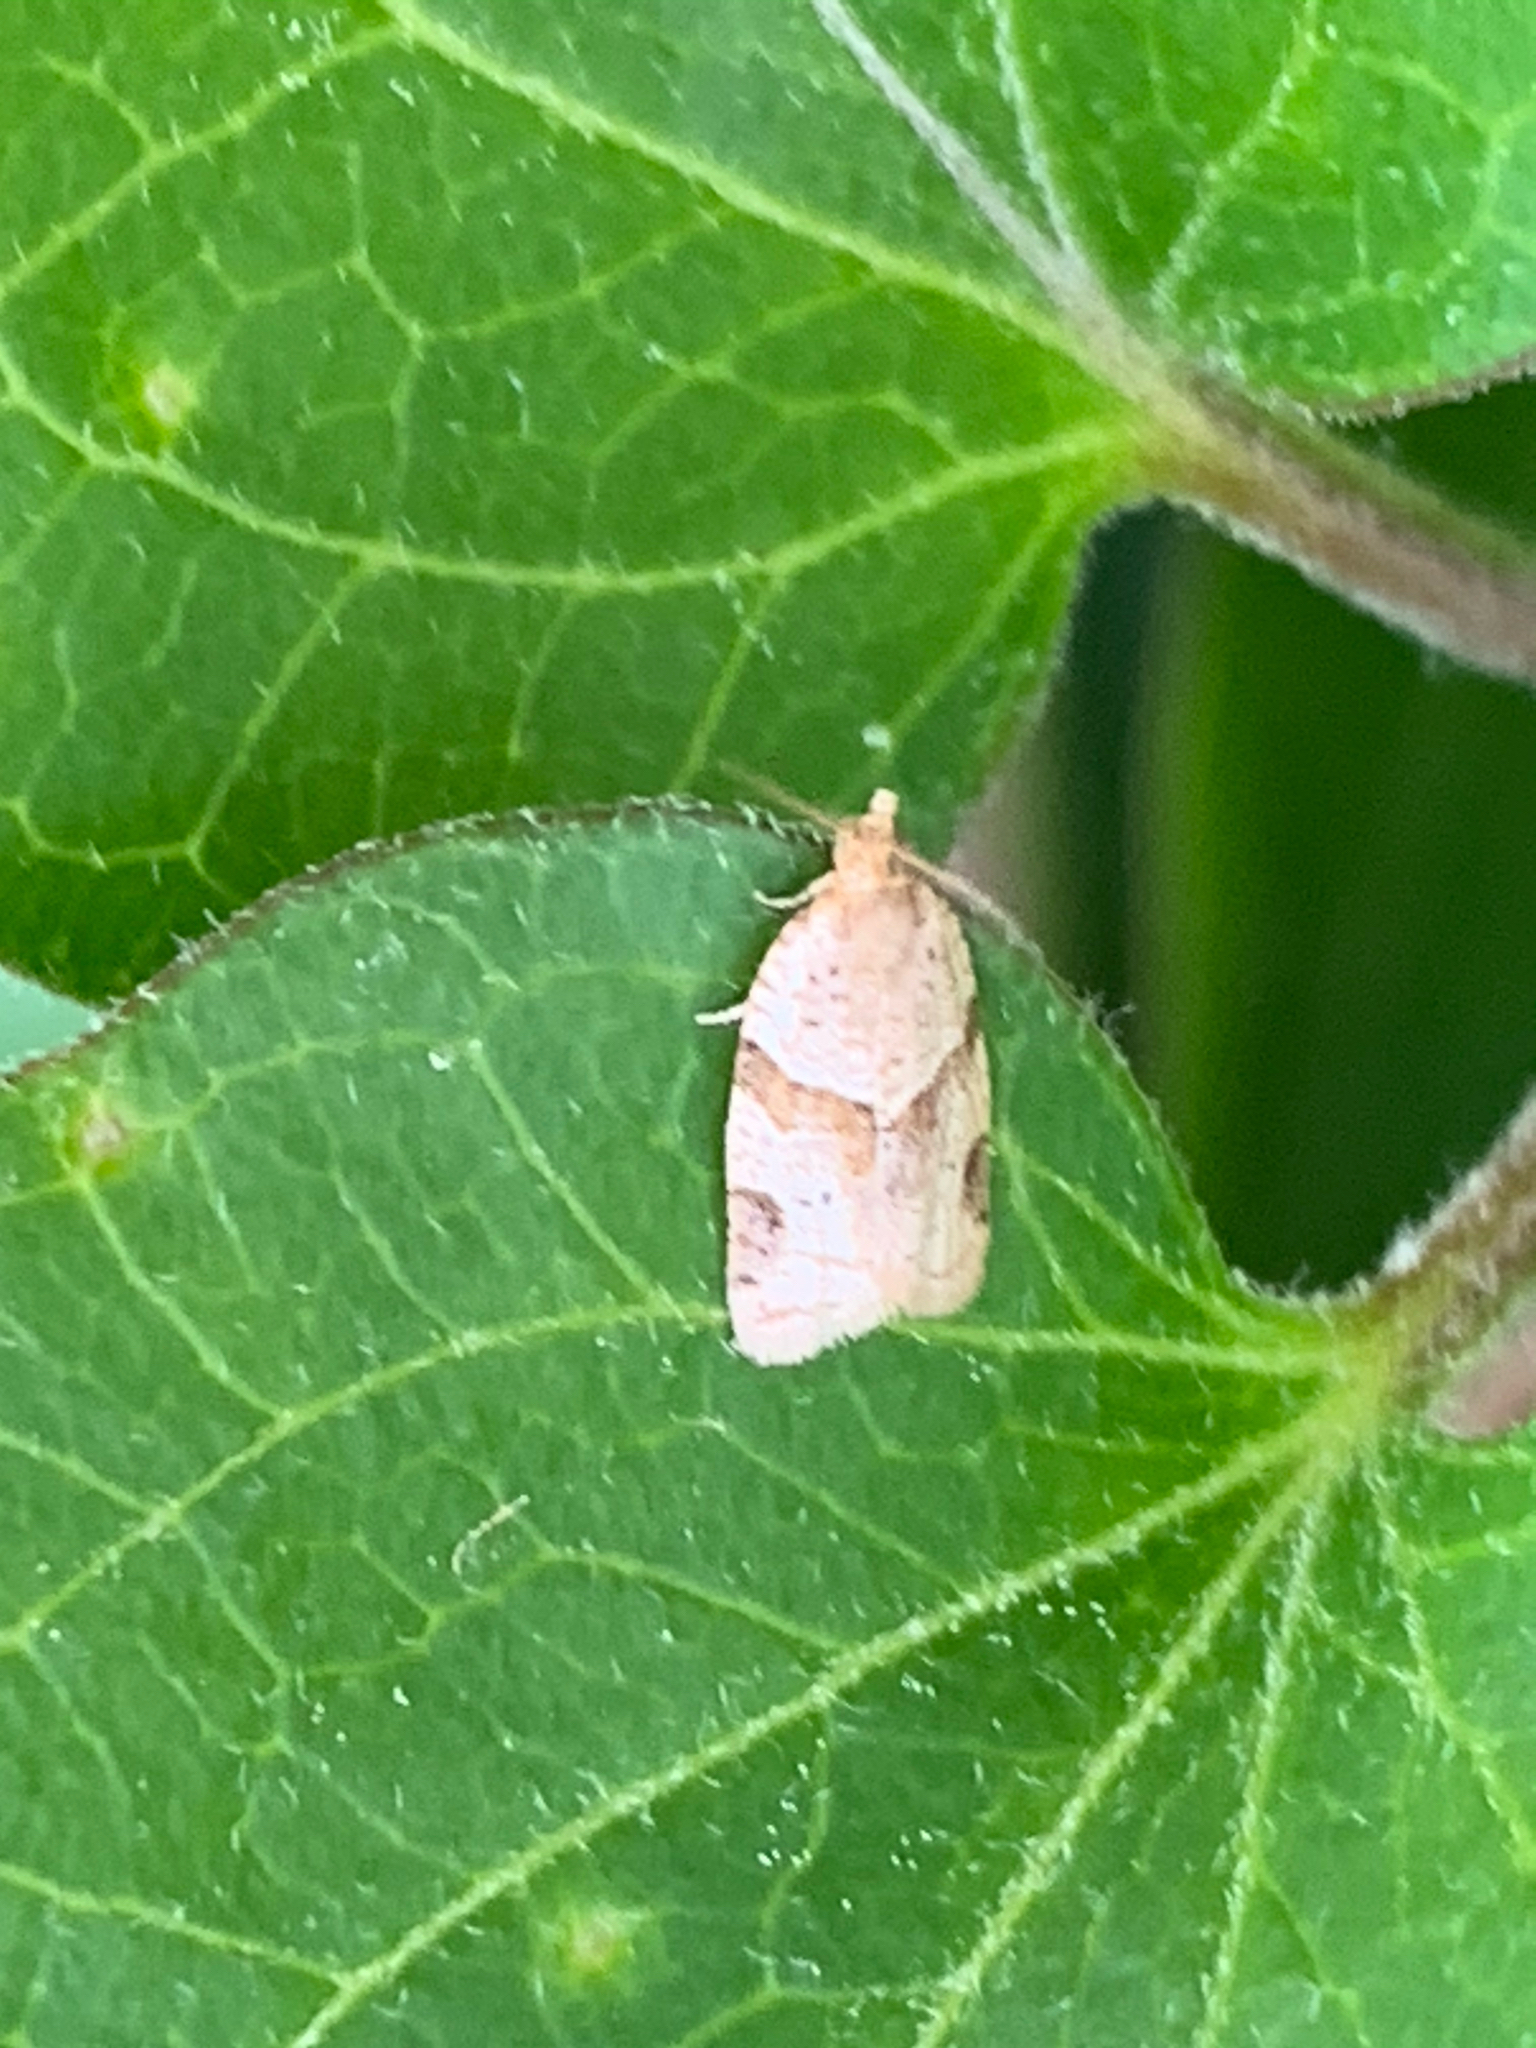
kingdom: Animalia
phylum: Arthropoda
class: Insecta
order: Lepidoptera
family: Tortricidae
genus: Clepsis
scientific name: Clepsis peritana
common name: Garden tortrix
